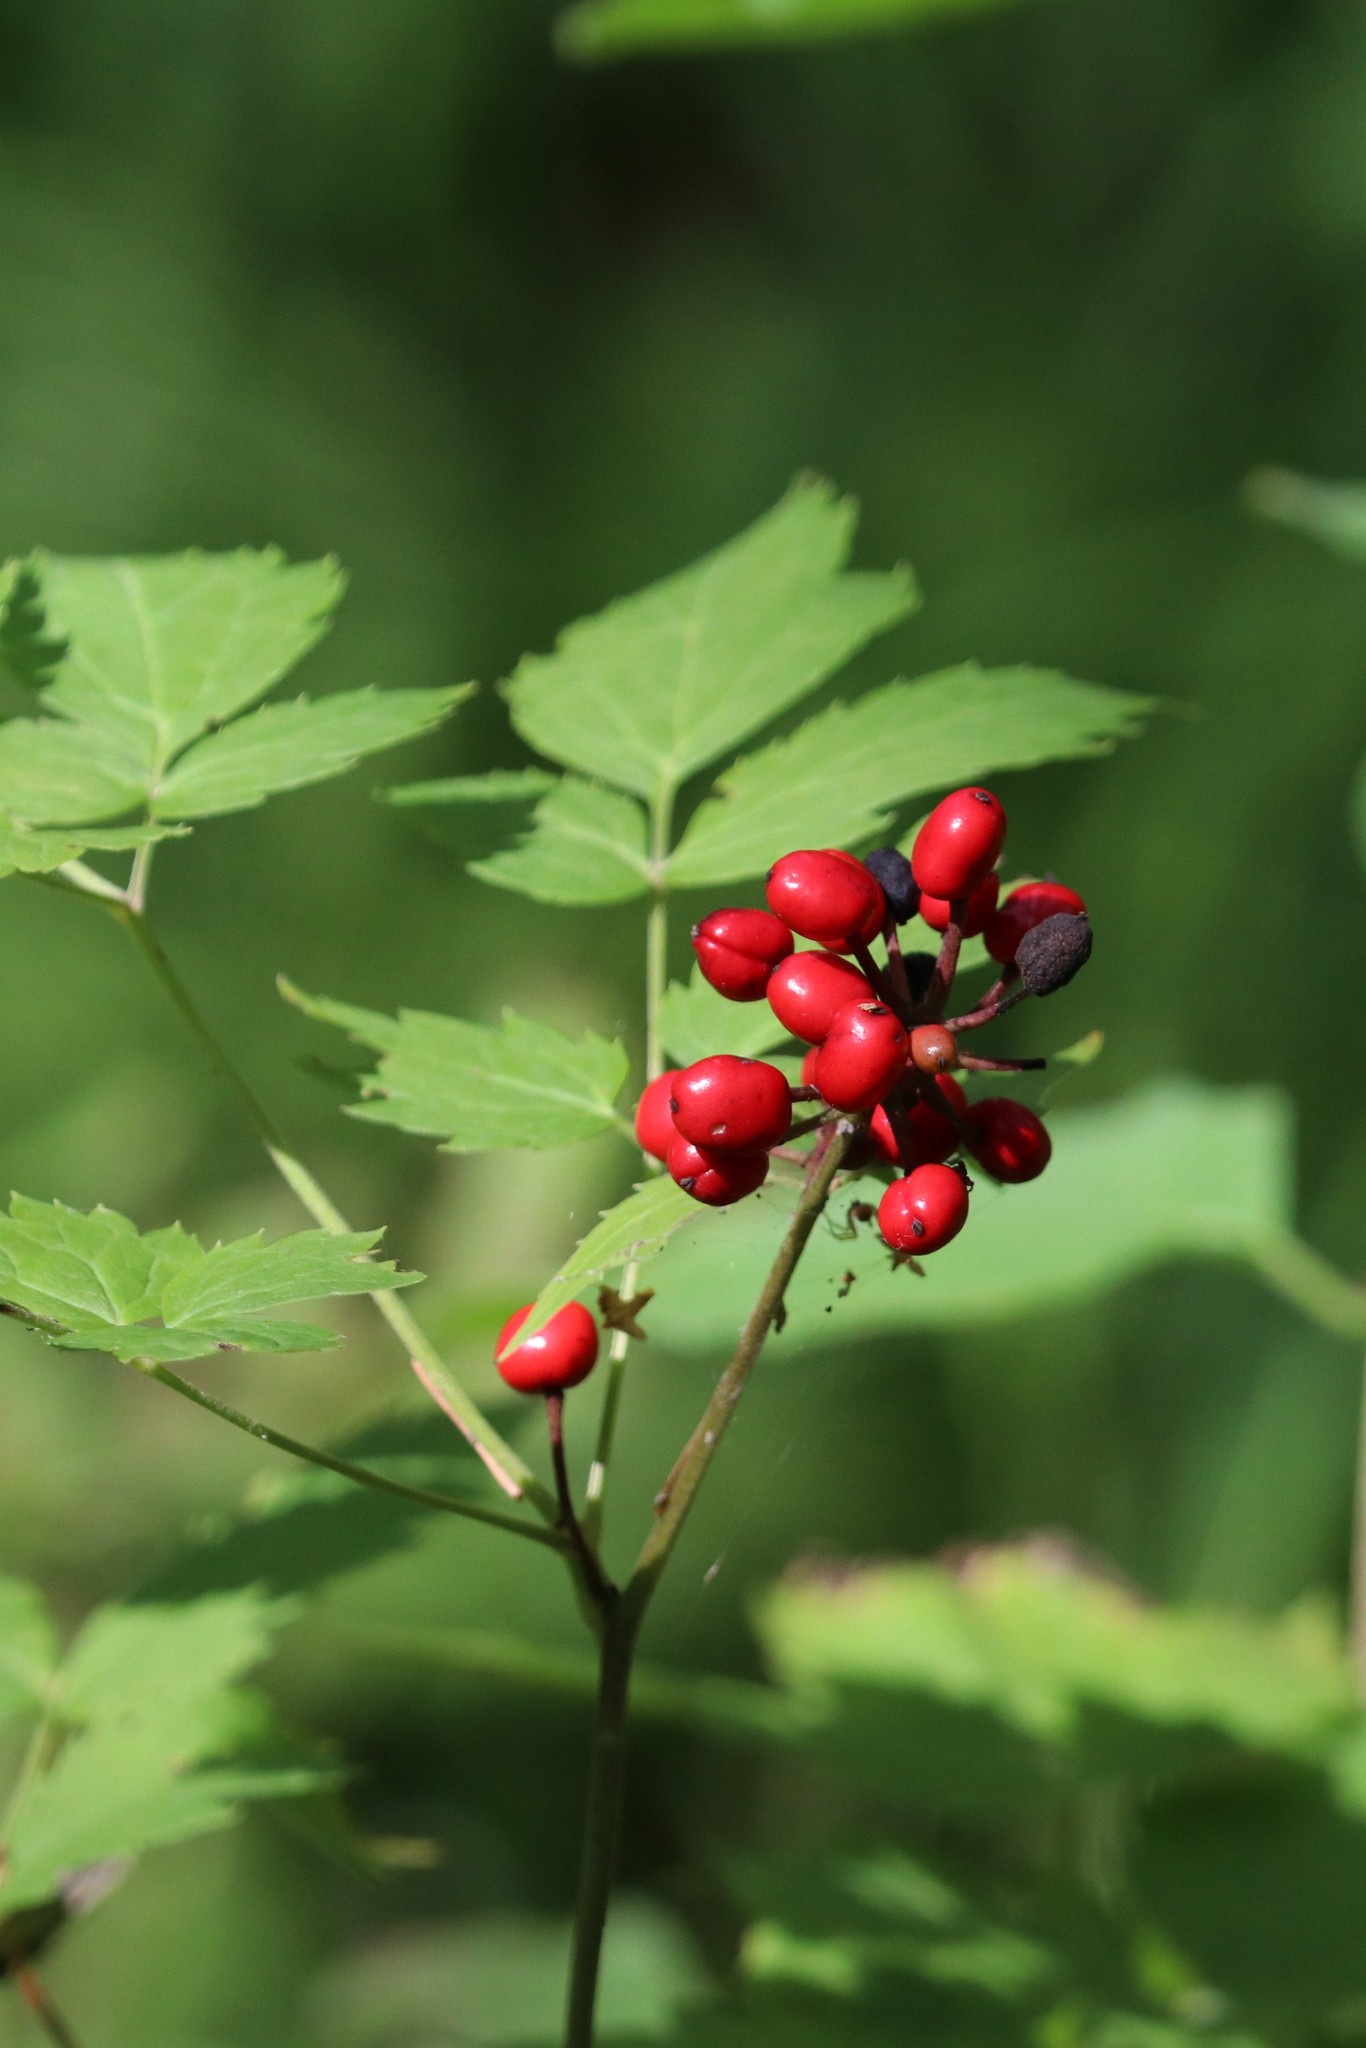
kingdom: Plantae
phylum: Tracheophyta
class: Magnoliopsida
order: Ranunculales
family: Ranunculaceae
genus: Actaea
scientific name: Actaea erythrocarpa
